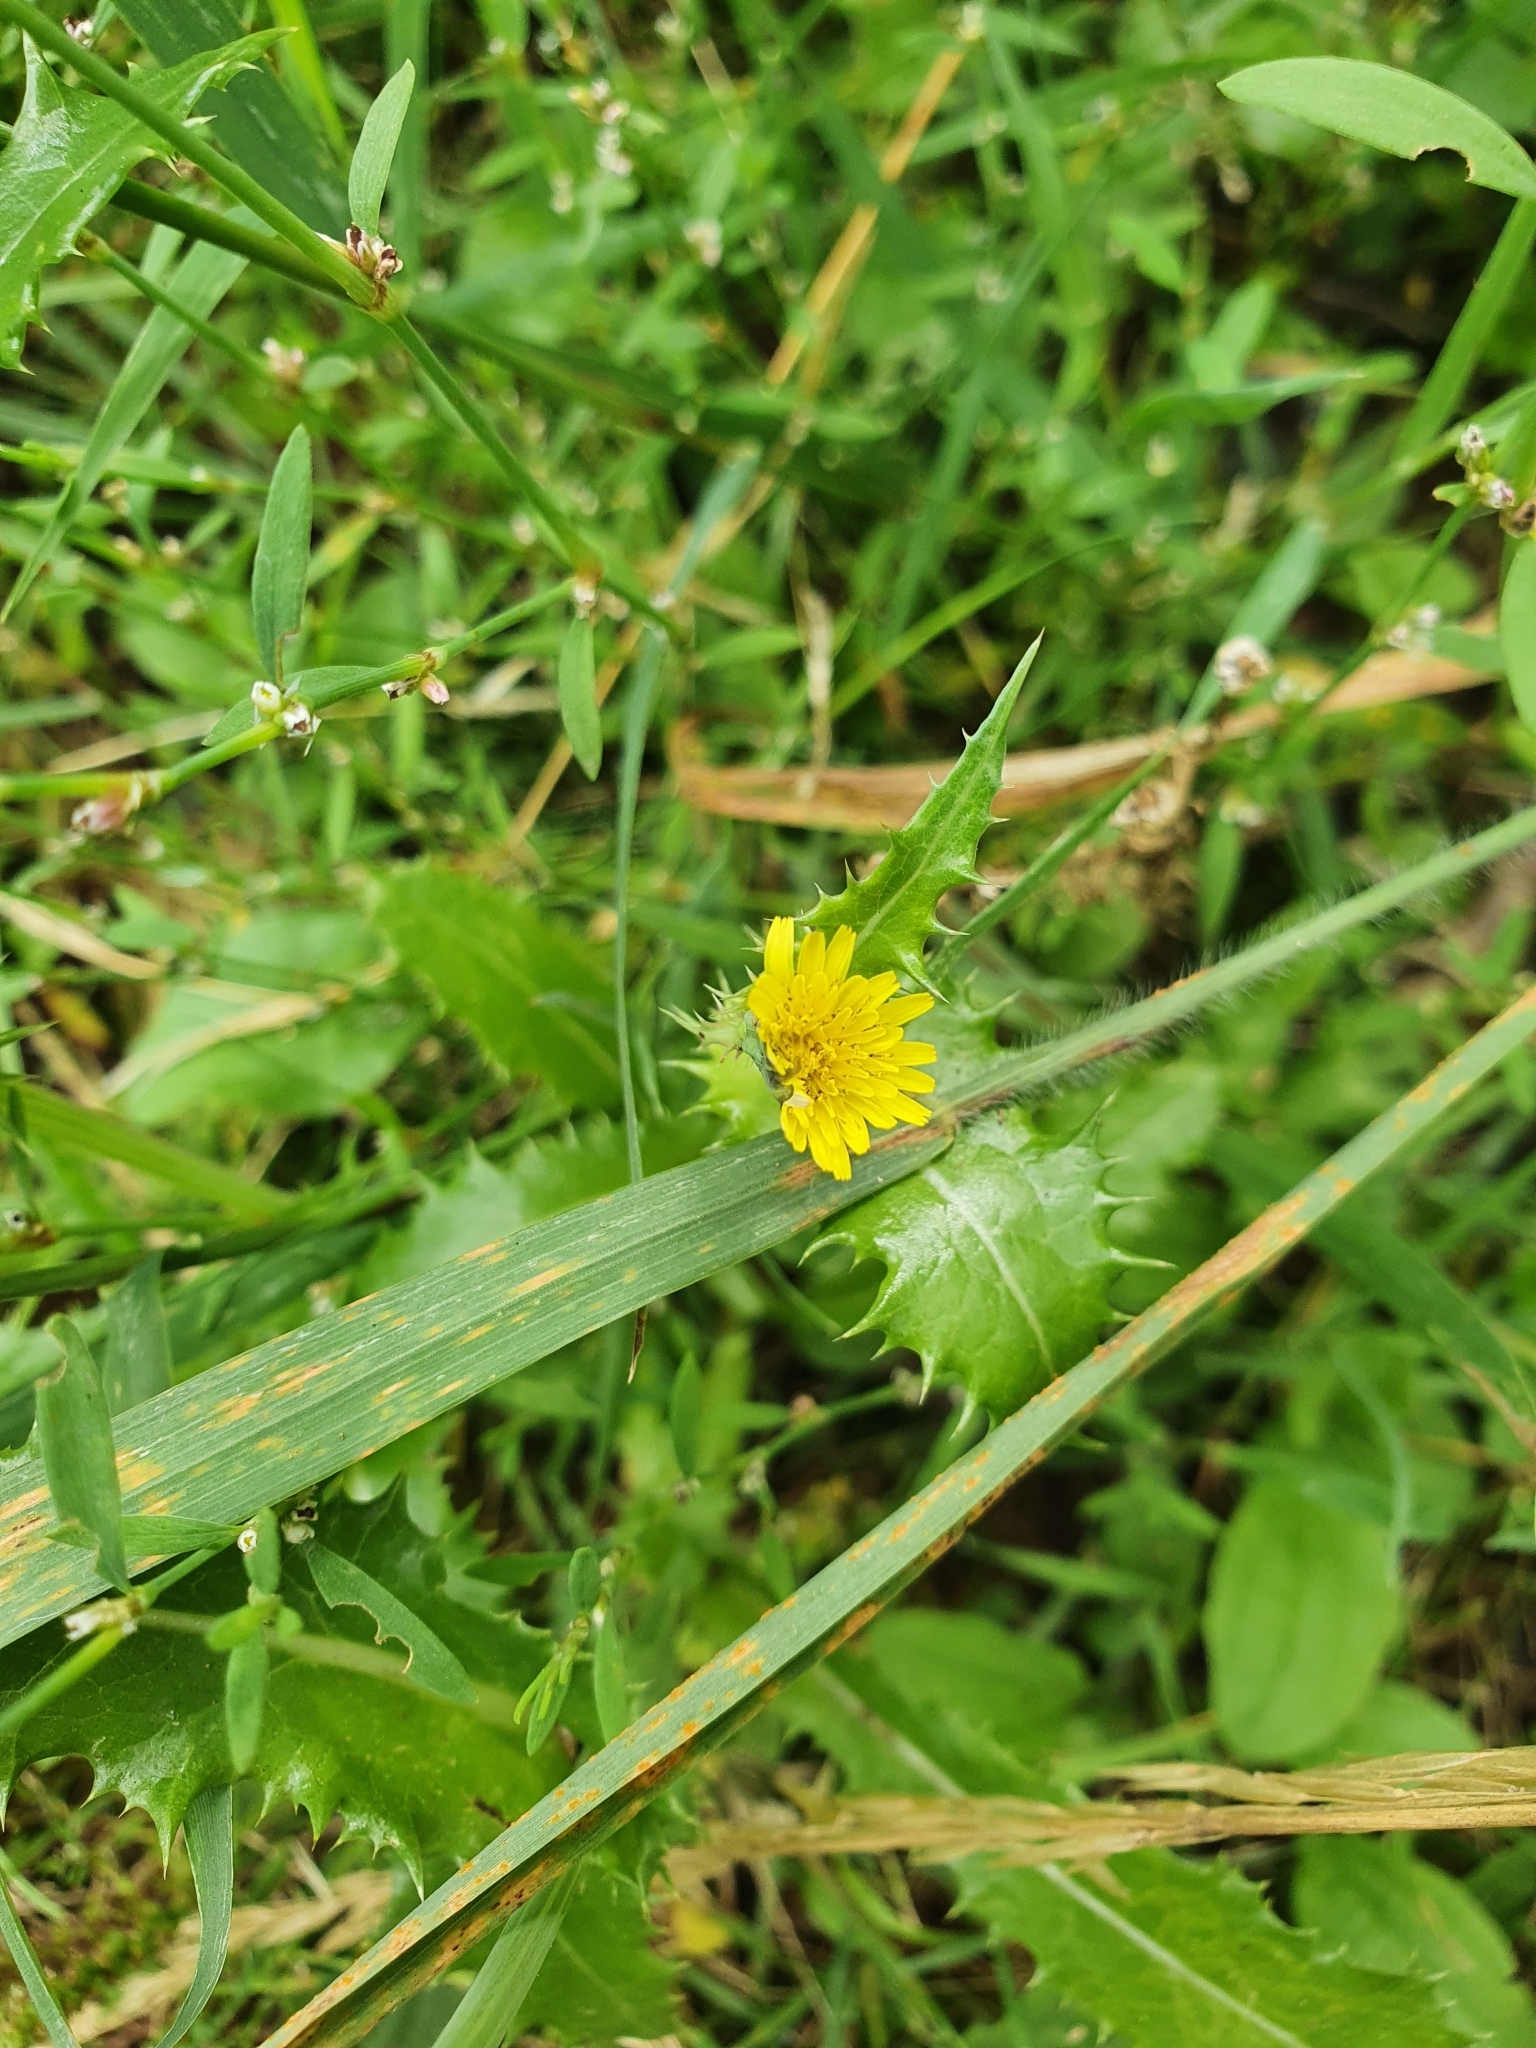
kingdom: Plantae
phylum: Tracheophyta
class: Magnoliopsida
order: Asterales
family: Asteraceae
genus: Sonchus
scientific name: Sonchus asper
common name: Prickly sow-thistle
